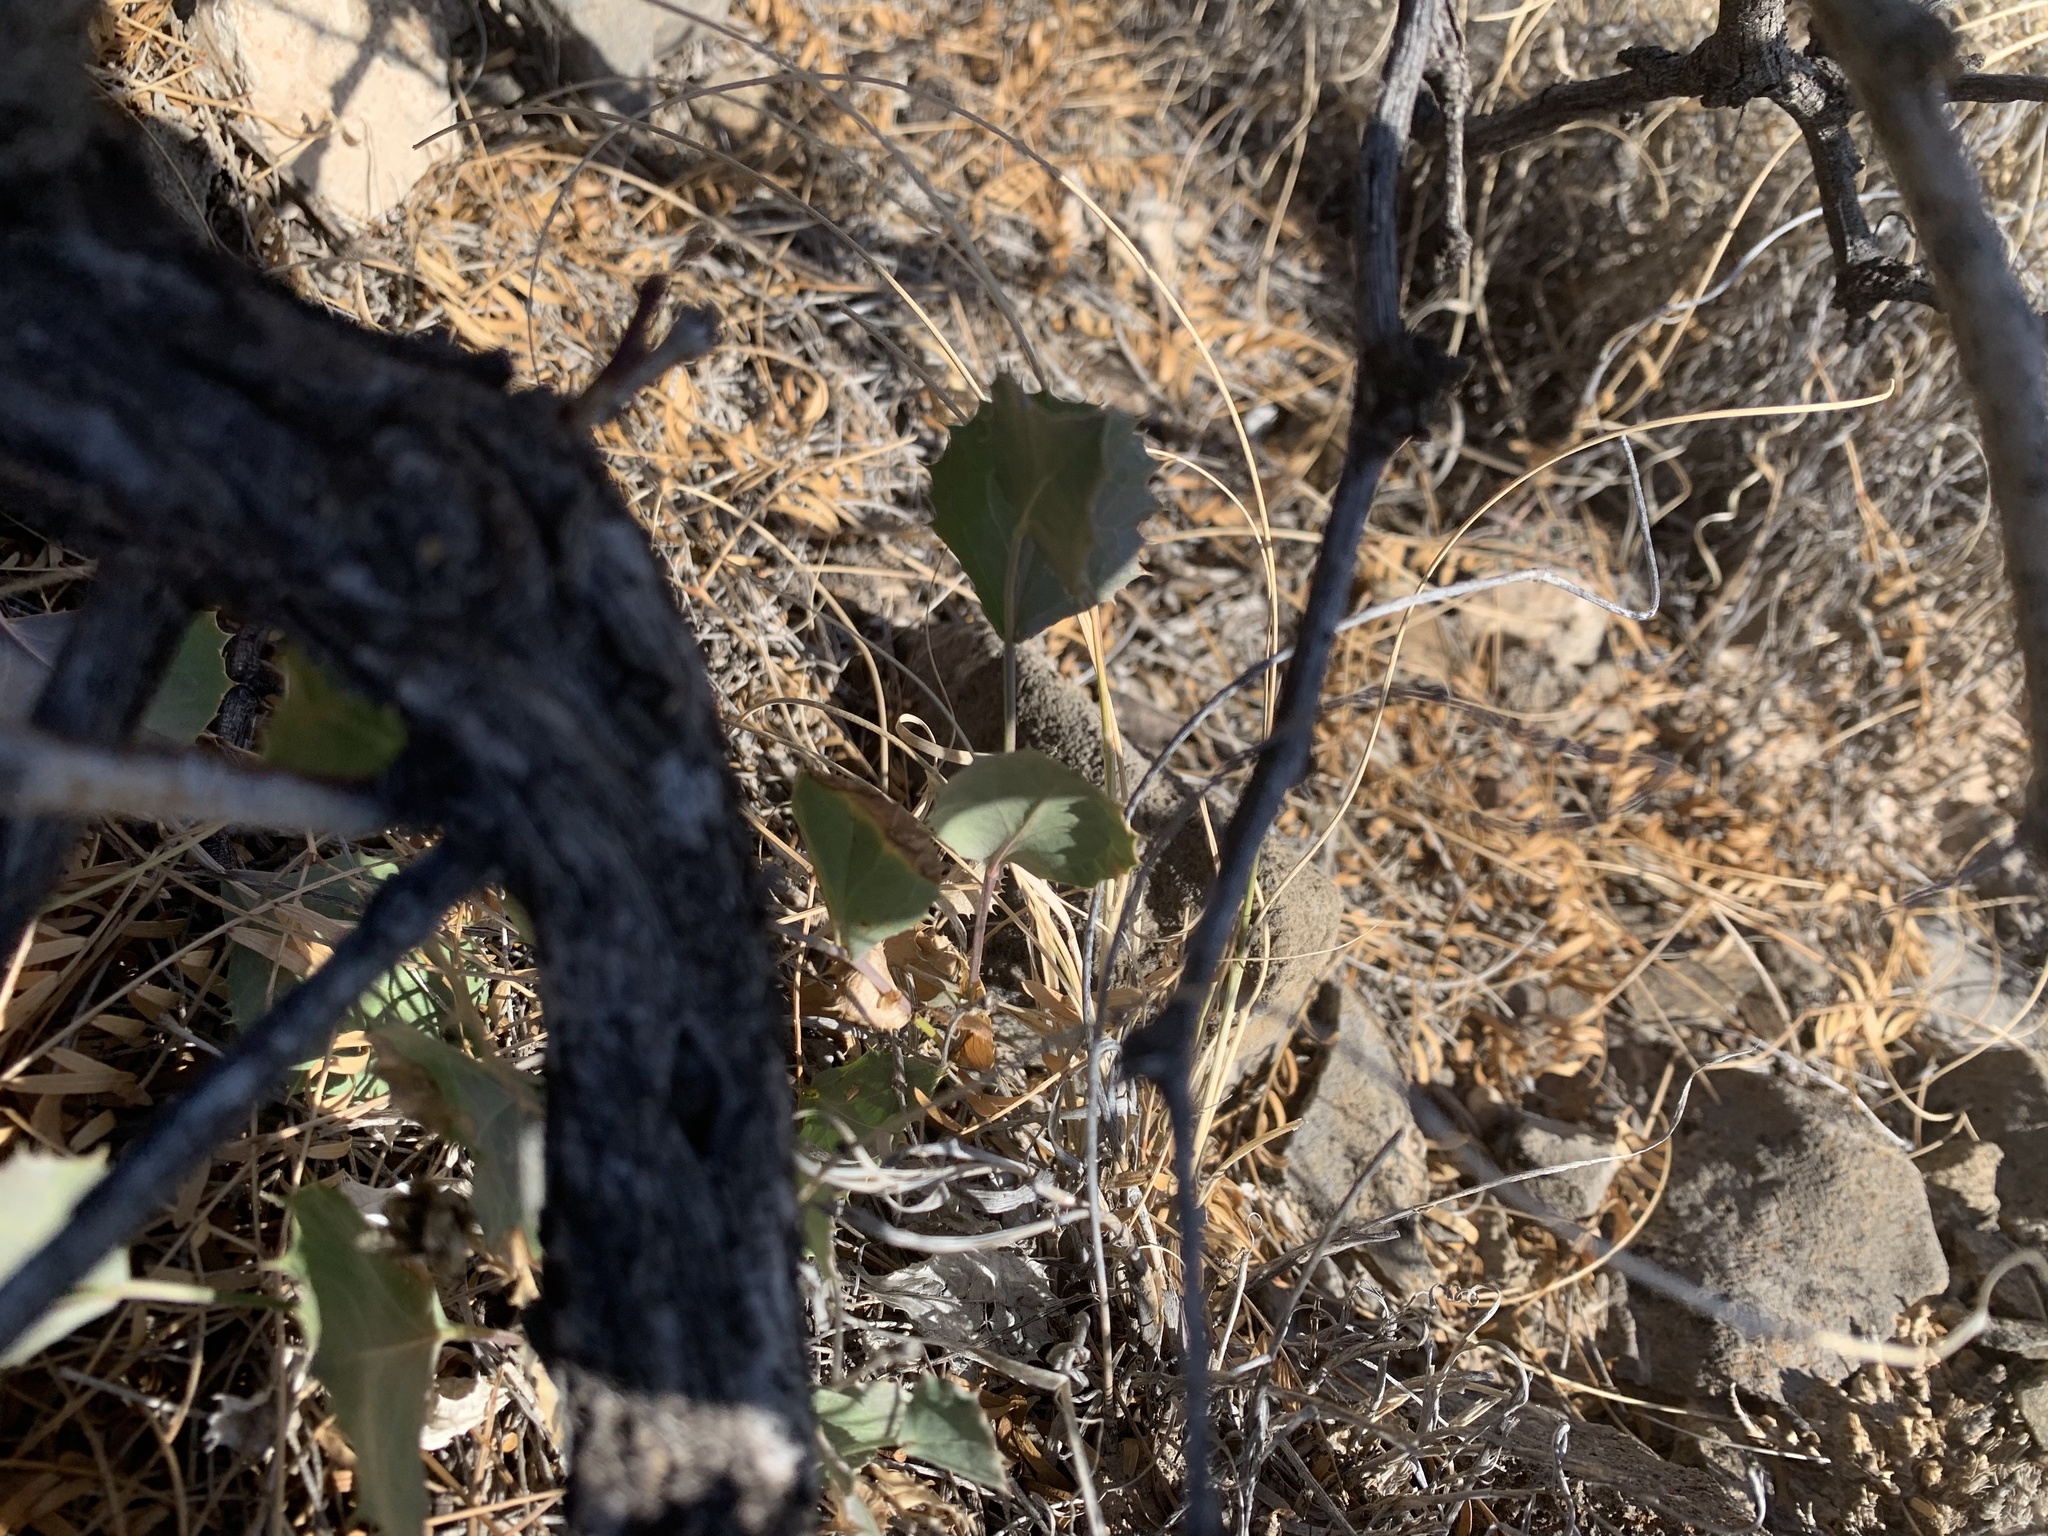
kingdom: Plantae
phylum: Tracheophyta
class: Magnoliopsida
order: Asterales
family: Asteraceae
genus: Acourtia
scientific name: Acourtia nana
